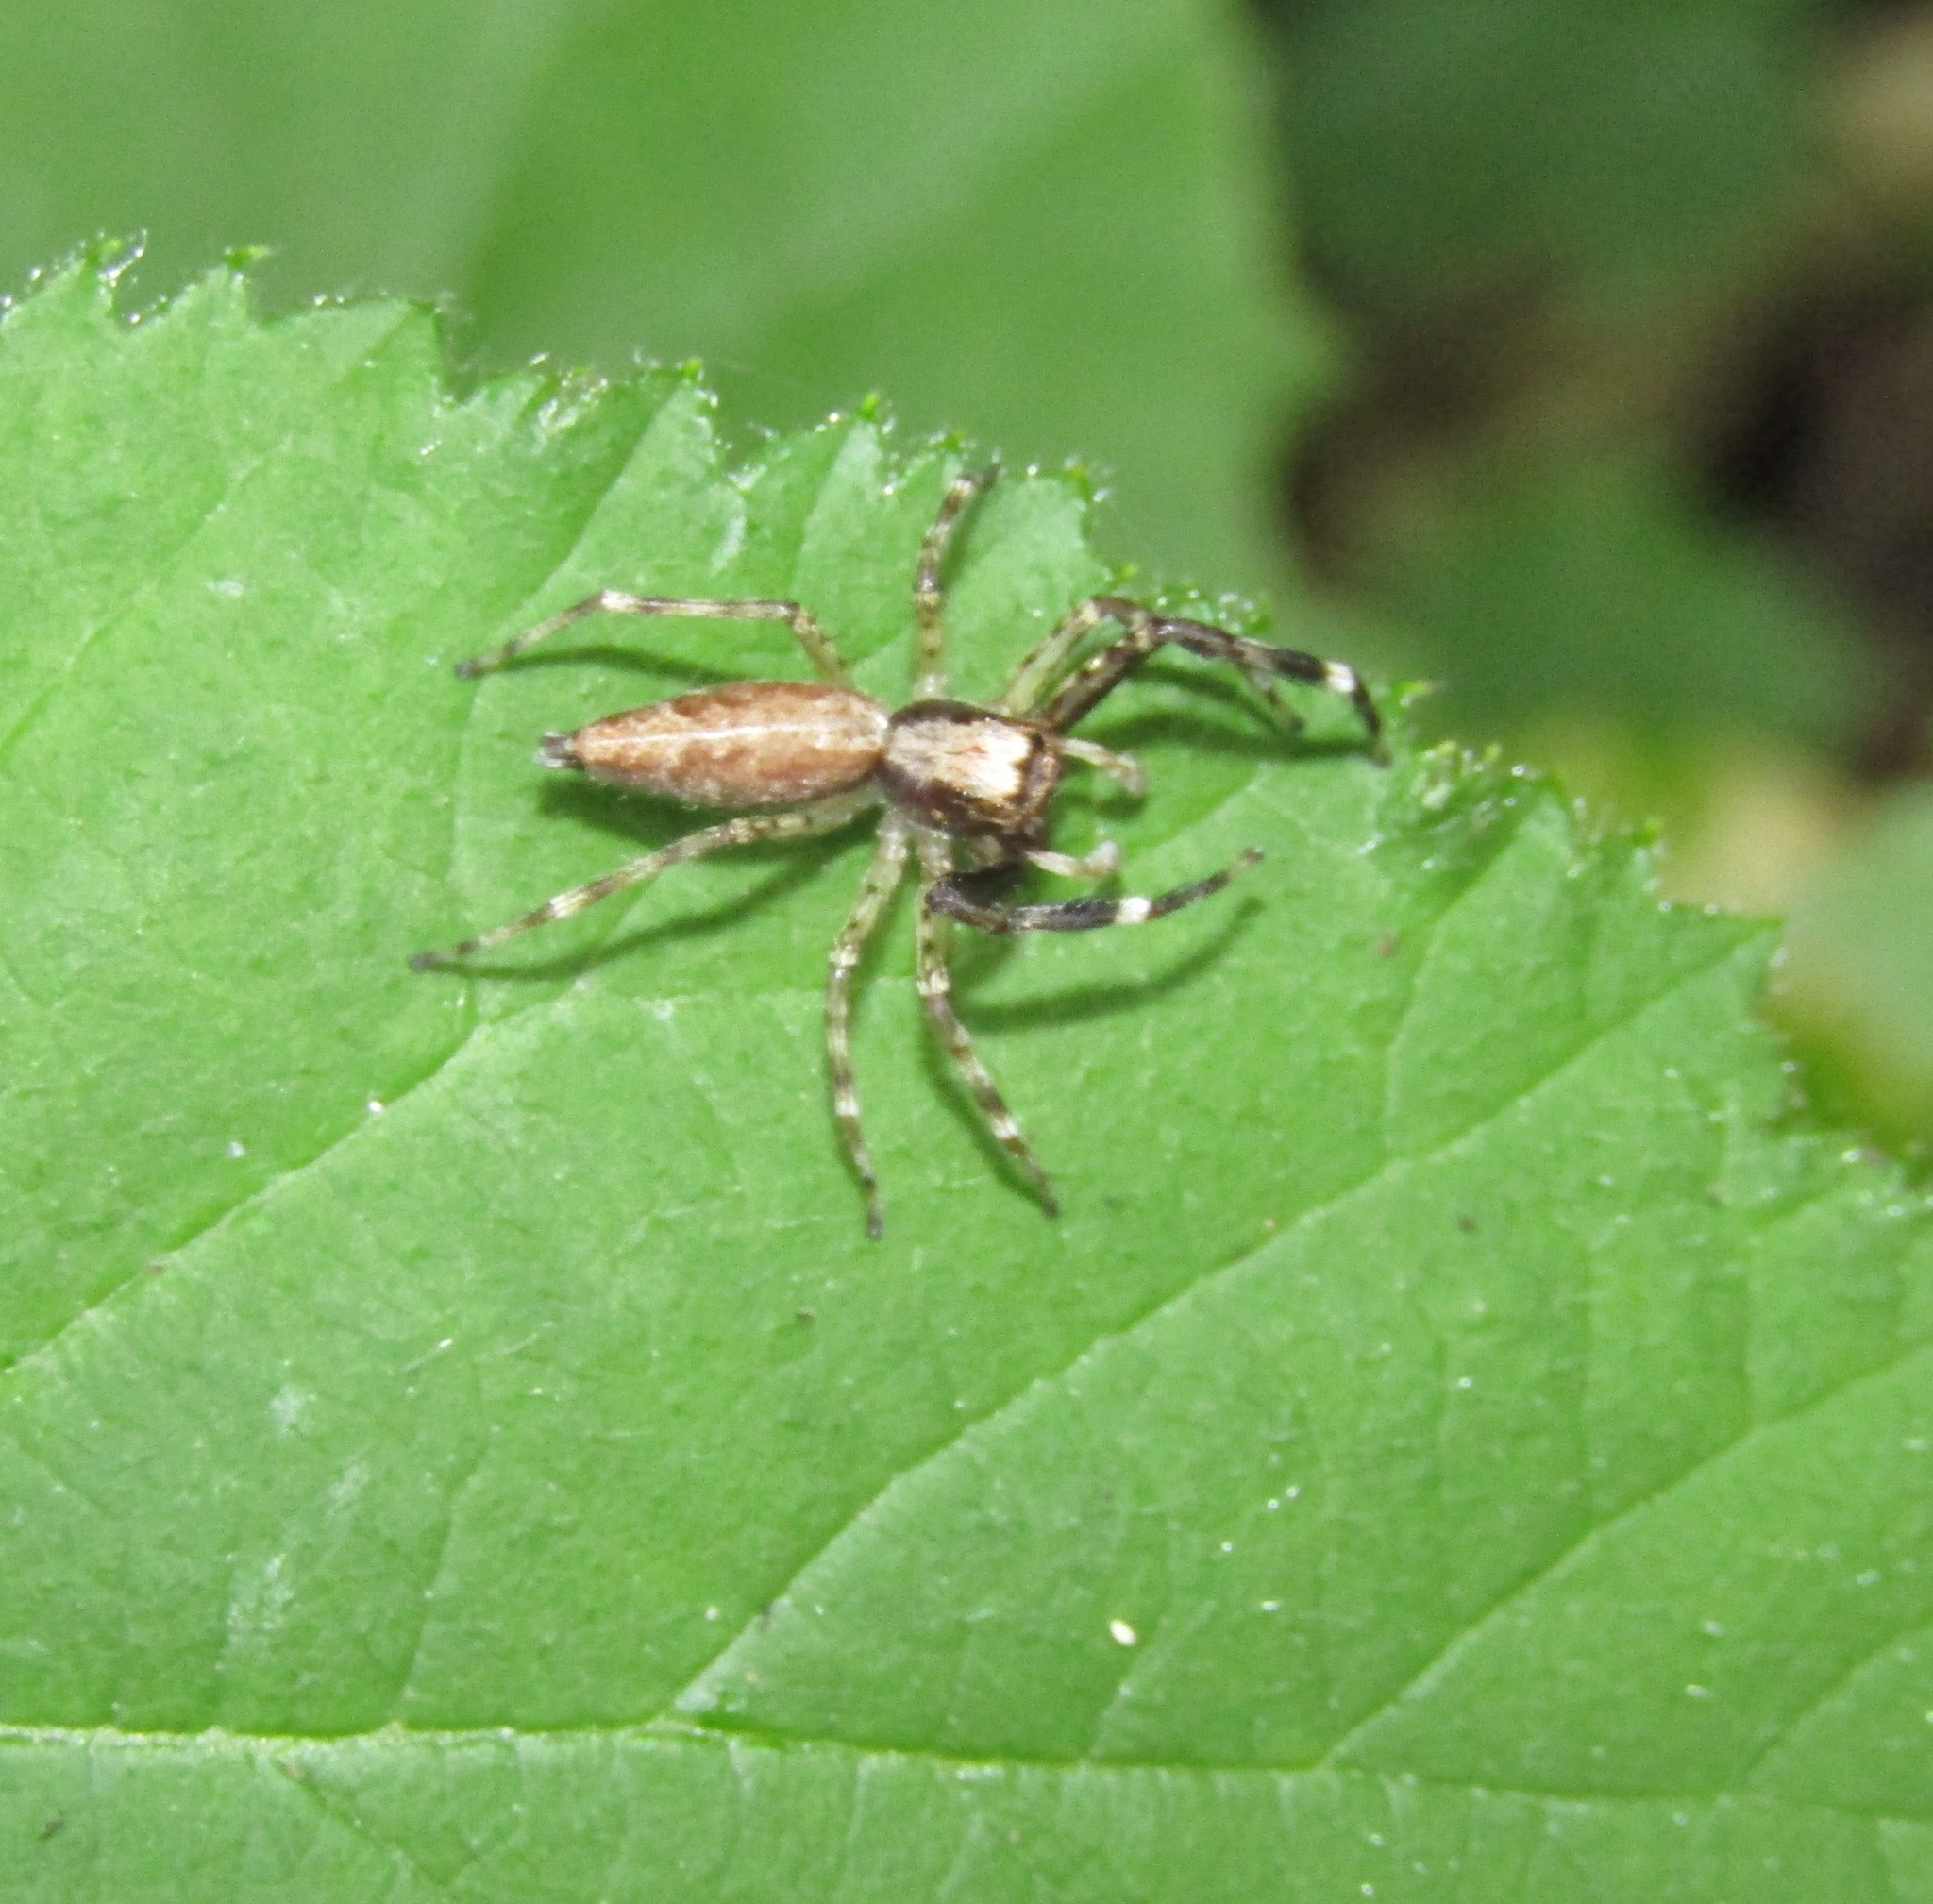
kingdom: Animalia
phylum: Arthropoda
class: Arachnida
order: Araneae
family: Salticidae
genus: Helpis
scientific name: Helpis minitabunda
